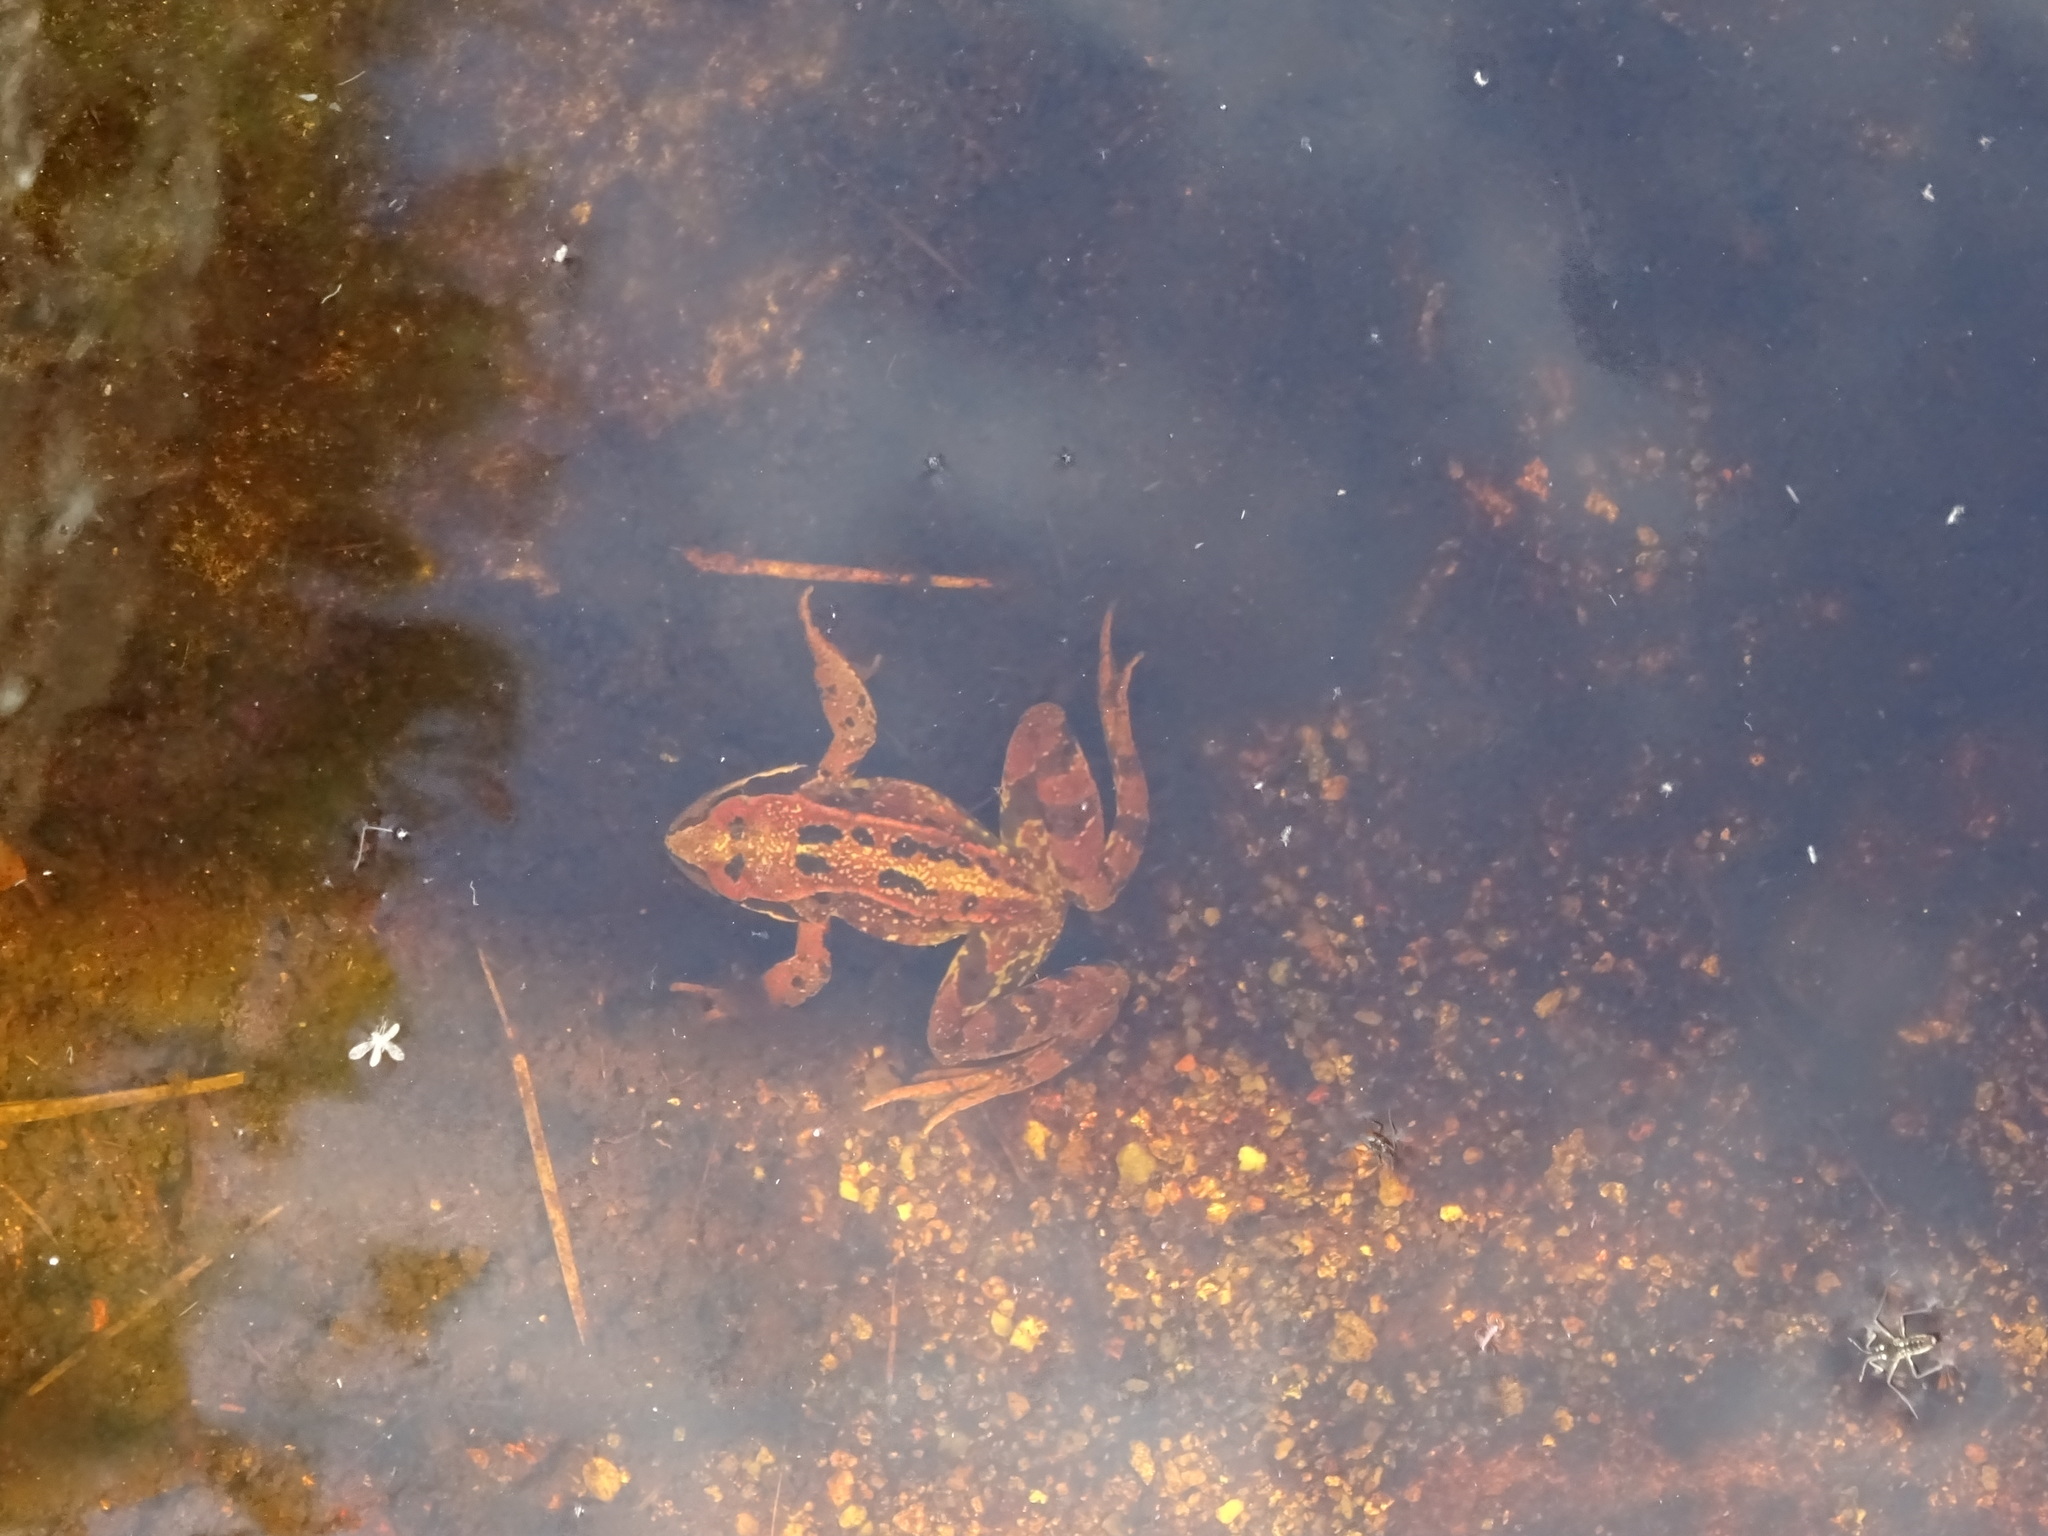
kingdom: Animalia
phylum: Chordata
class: Amphibia
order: Anura
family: Ranidae
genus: Rana
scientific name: Rana temporaria
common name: Common frog
